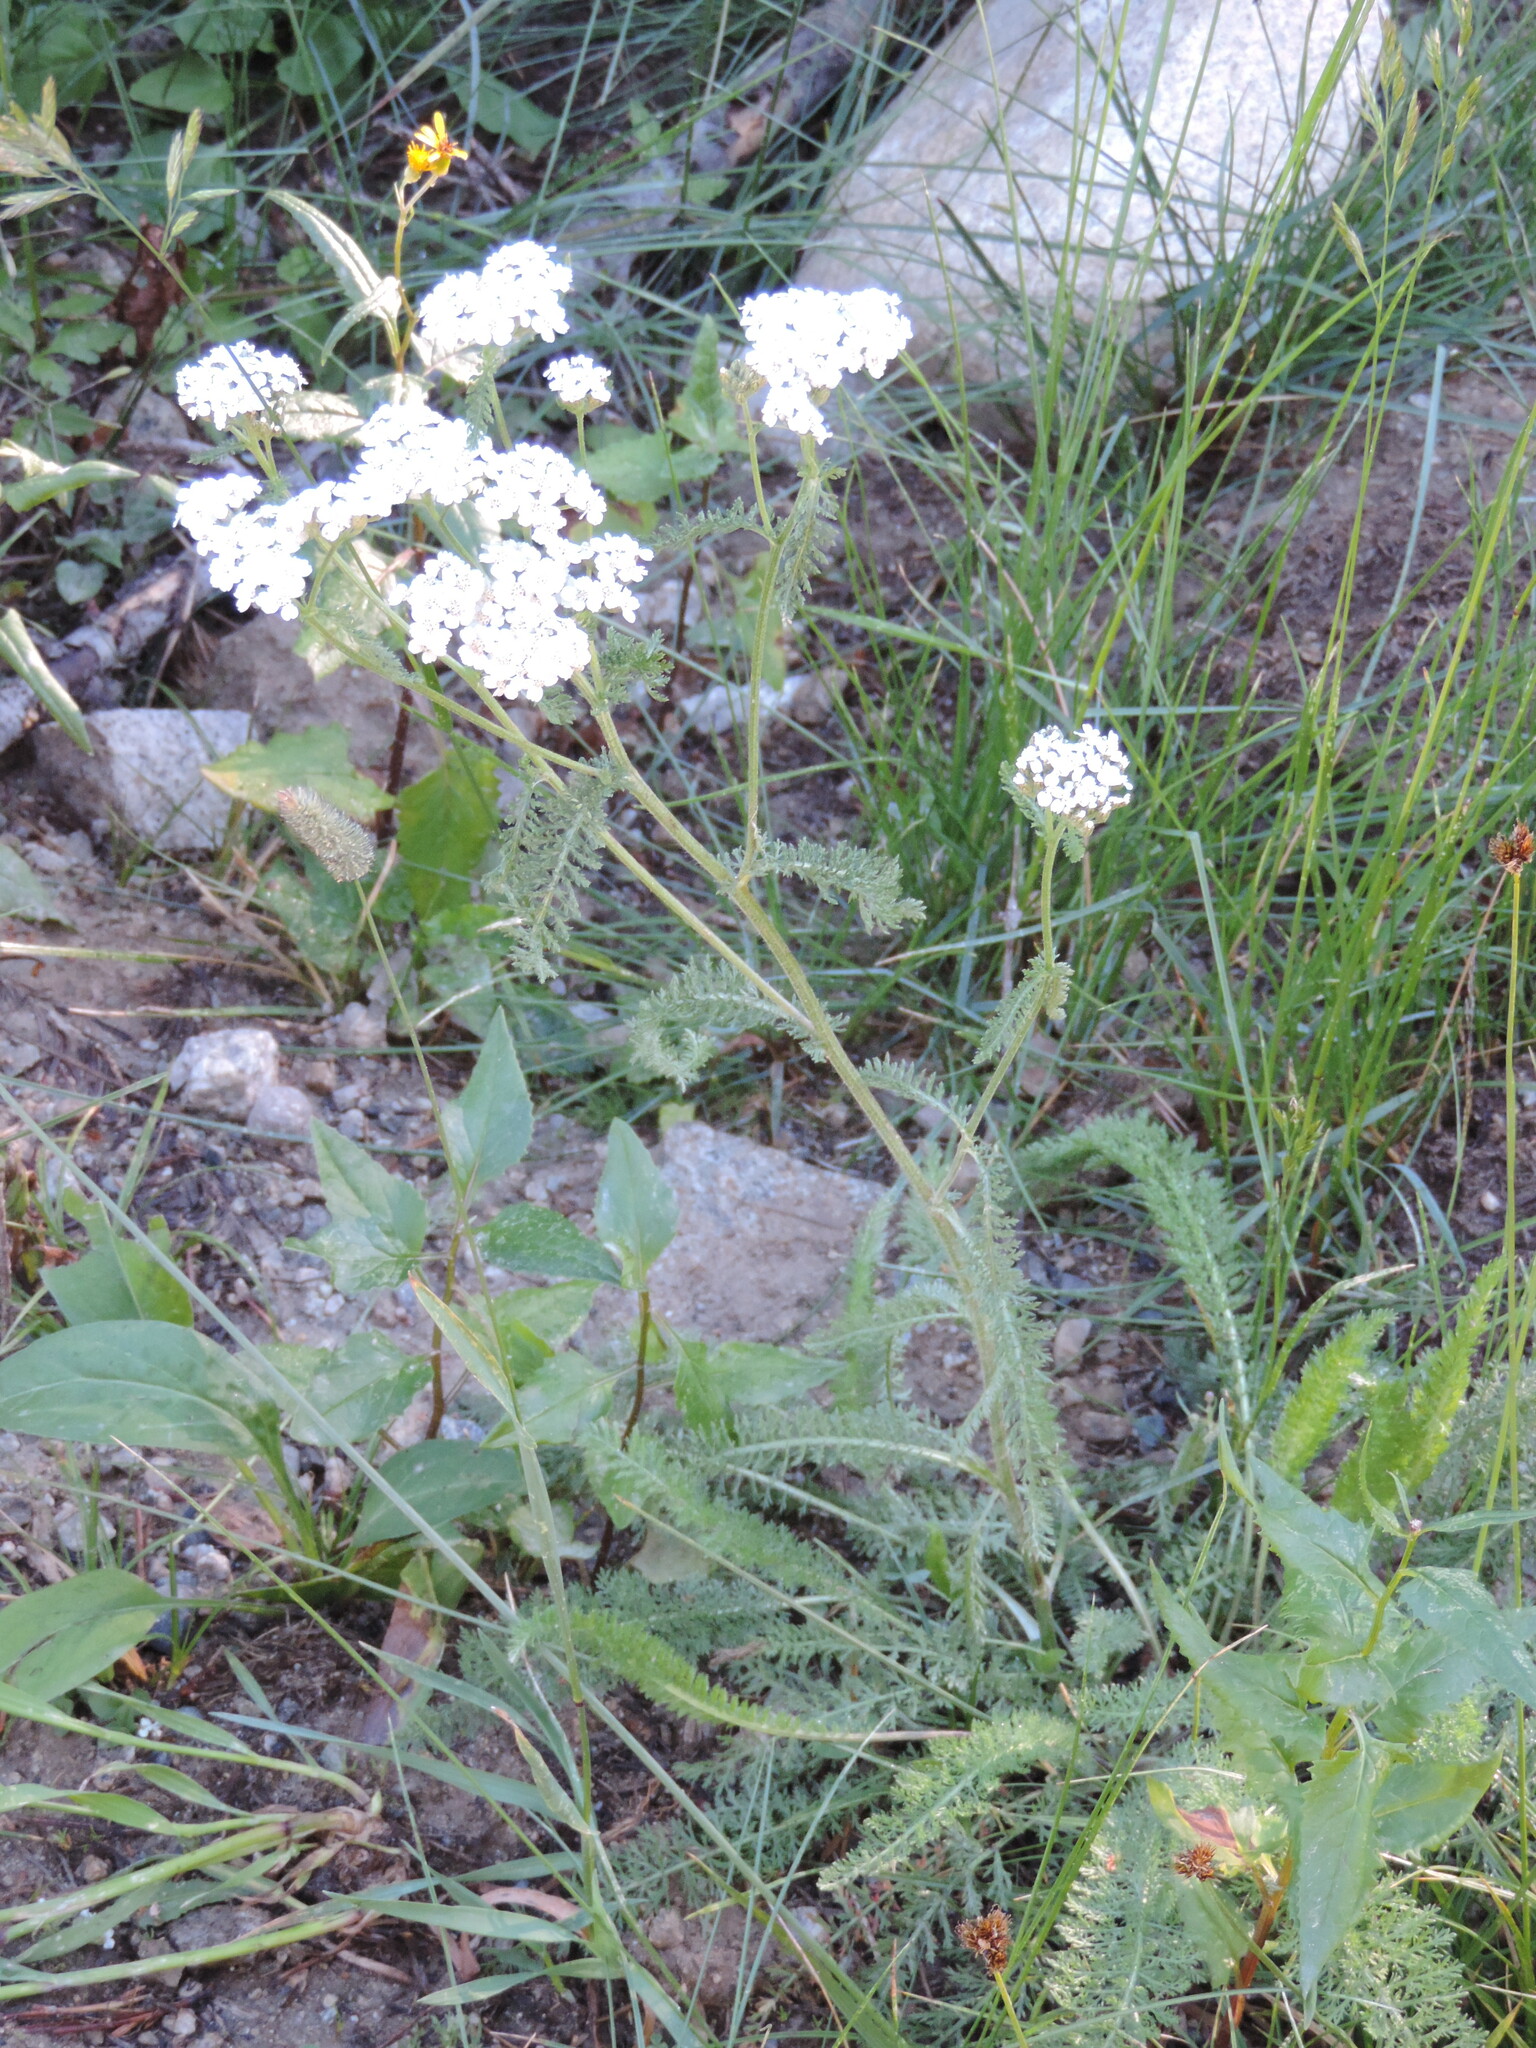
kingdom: Plantae
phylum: Tracheophyta
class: Magnoliopsida
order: Asterales
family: Asteraceae
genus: Achillea
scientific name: Achillea millefolium
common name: Yarrow
